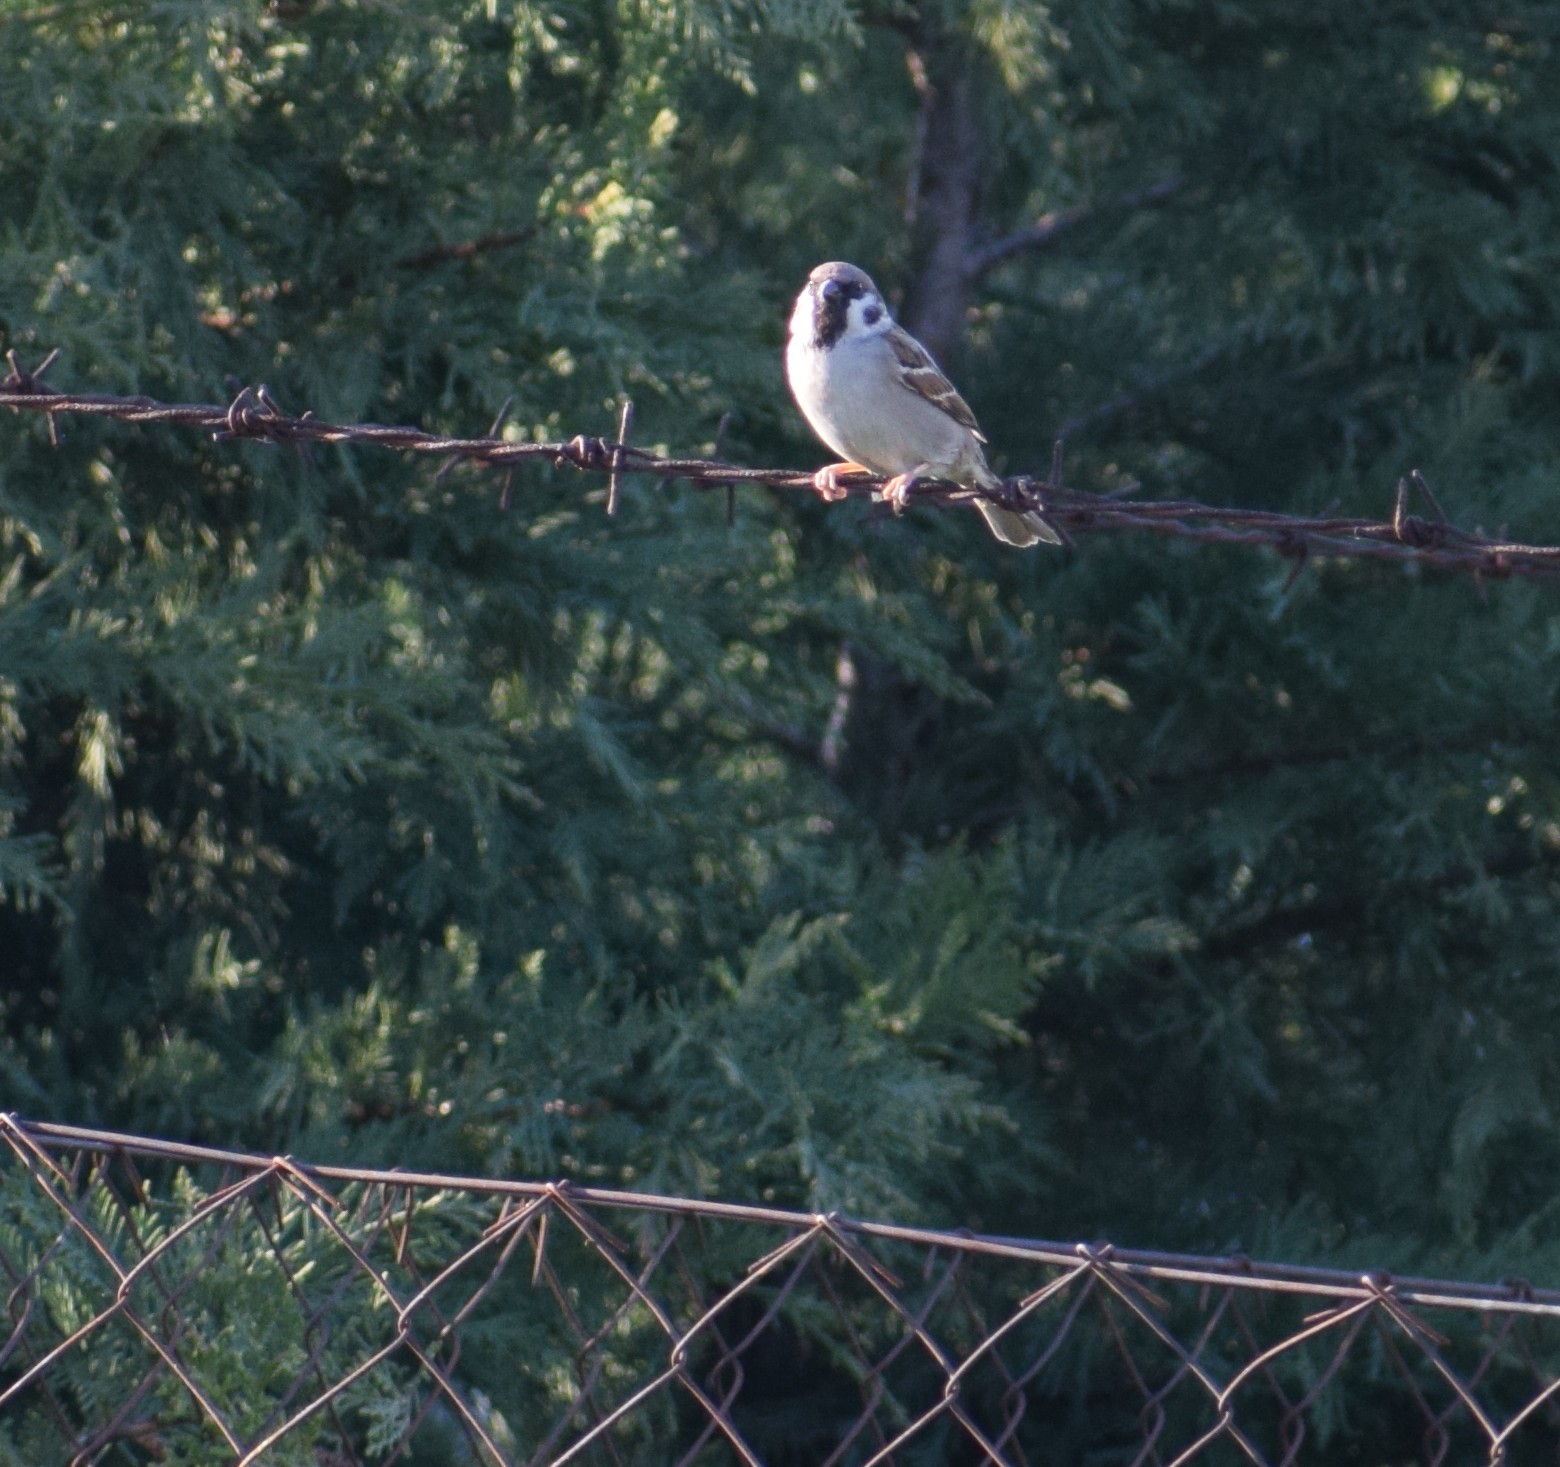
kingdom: Animalia
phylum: Chordata
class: Aves
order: Passeriformes
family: Passeridae
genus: Passer
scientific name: Passer montanus
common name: Eurasian tree sparrow
